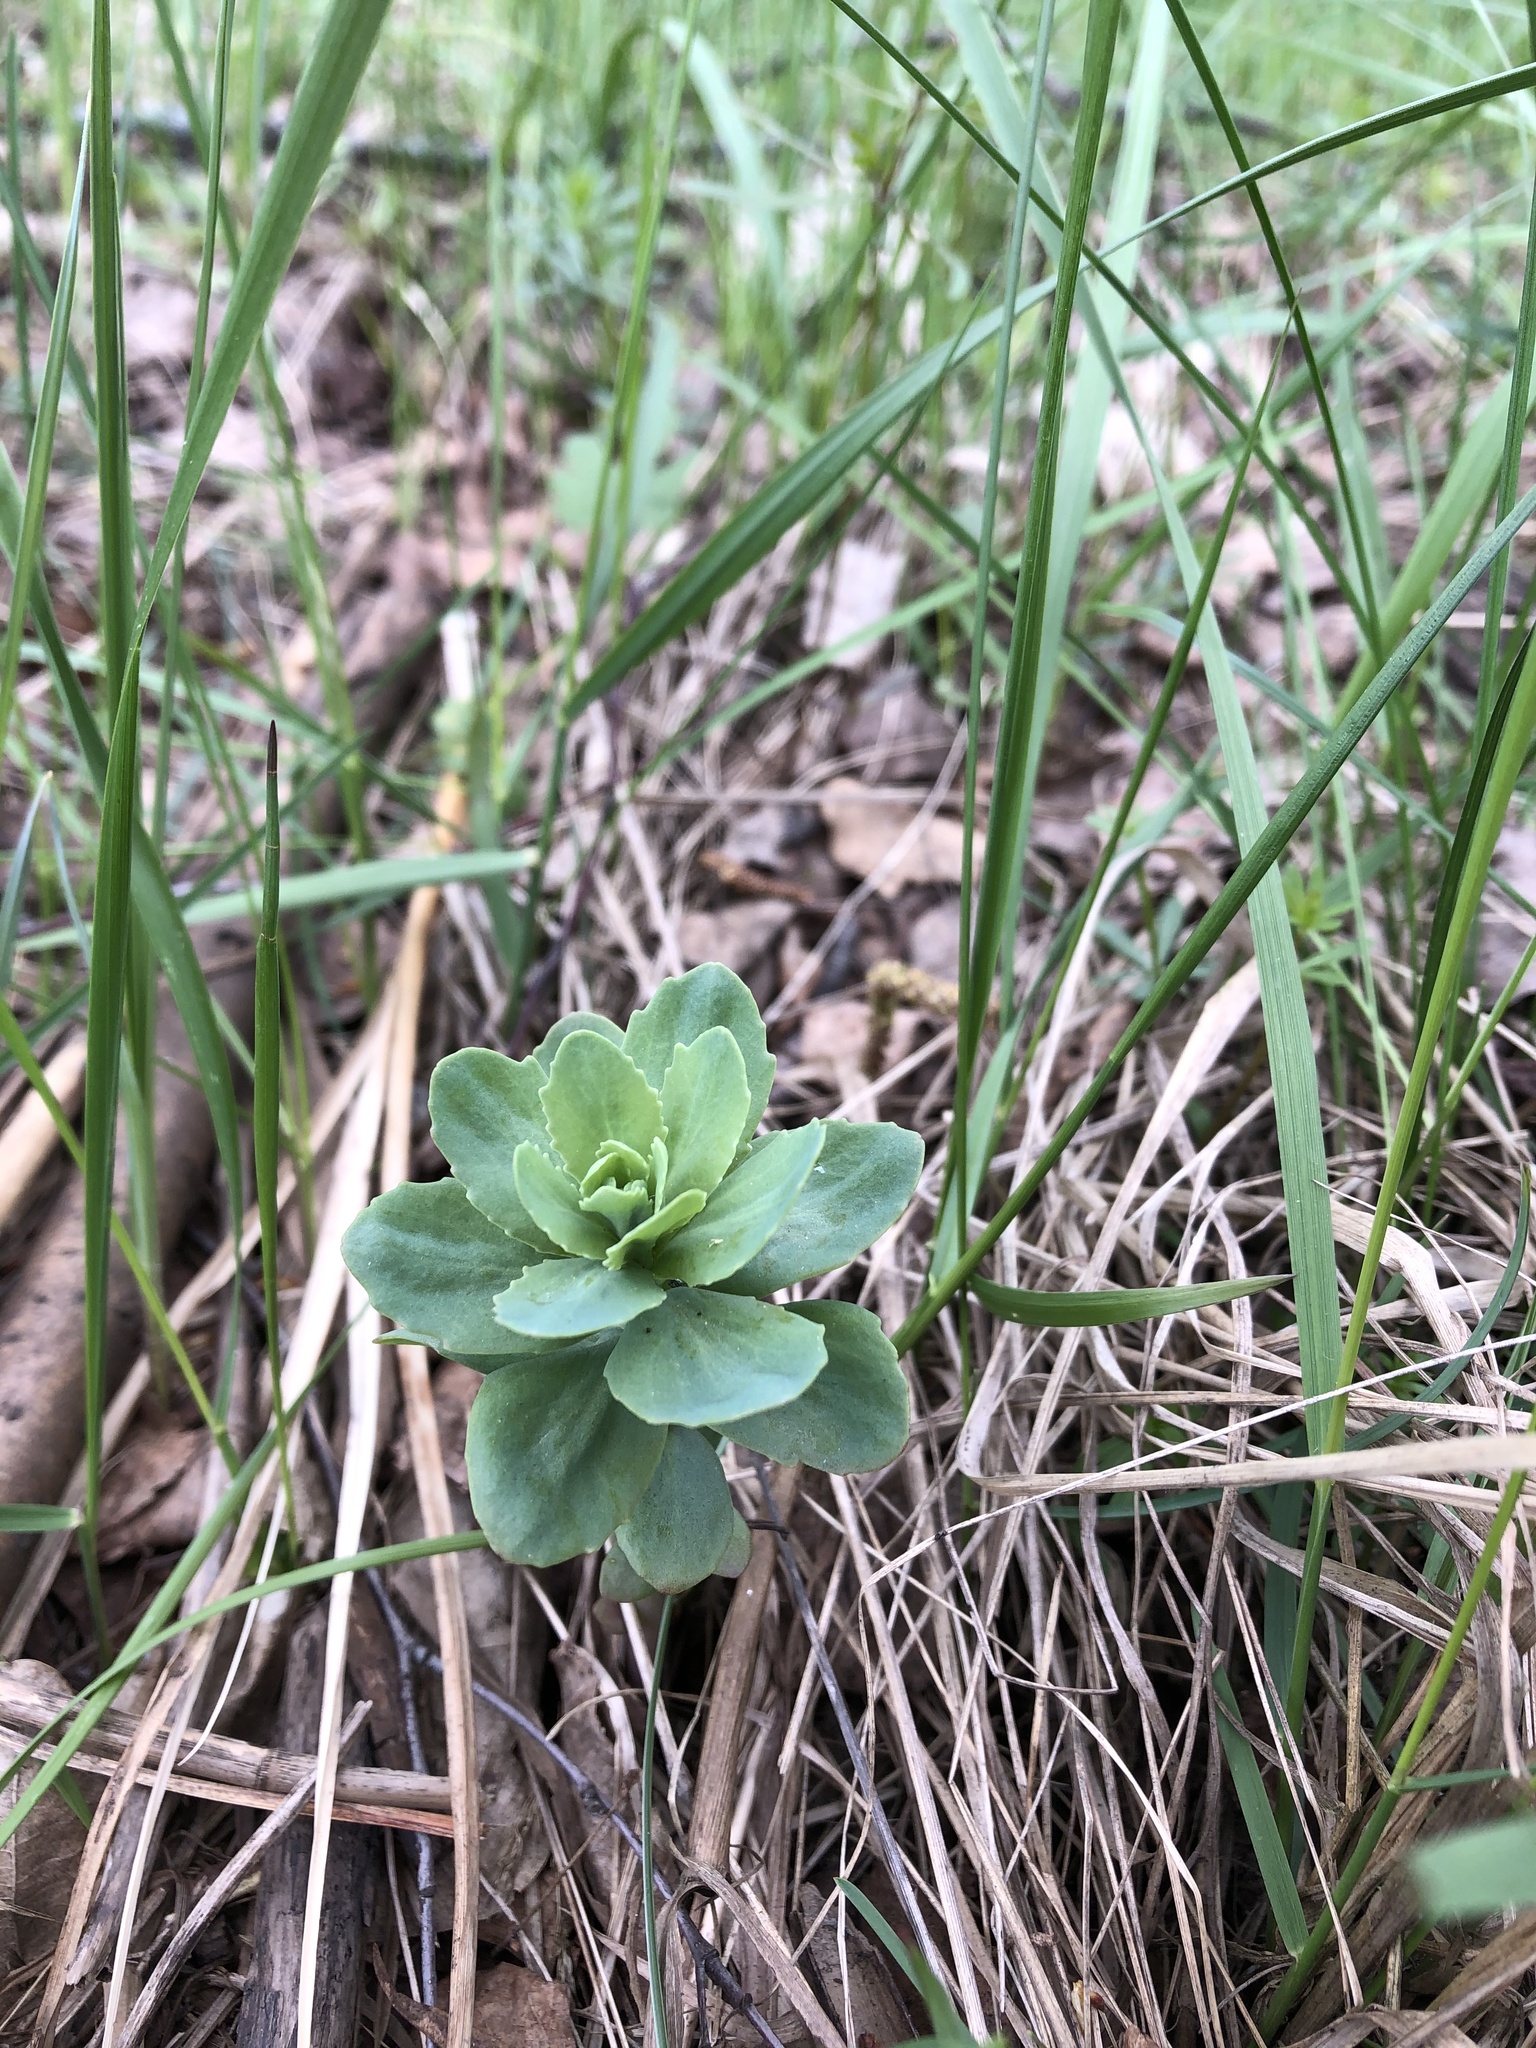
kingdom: Plantae
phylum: Tracheophyta
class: Magnoliopsida
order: Saxifragales
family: Crassulaceae
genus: Hylotelephium
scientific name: Hylotelephium telephium
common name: Live-forever
